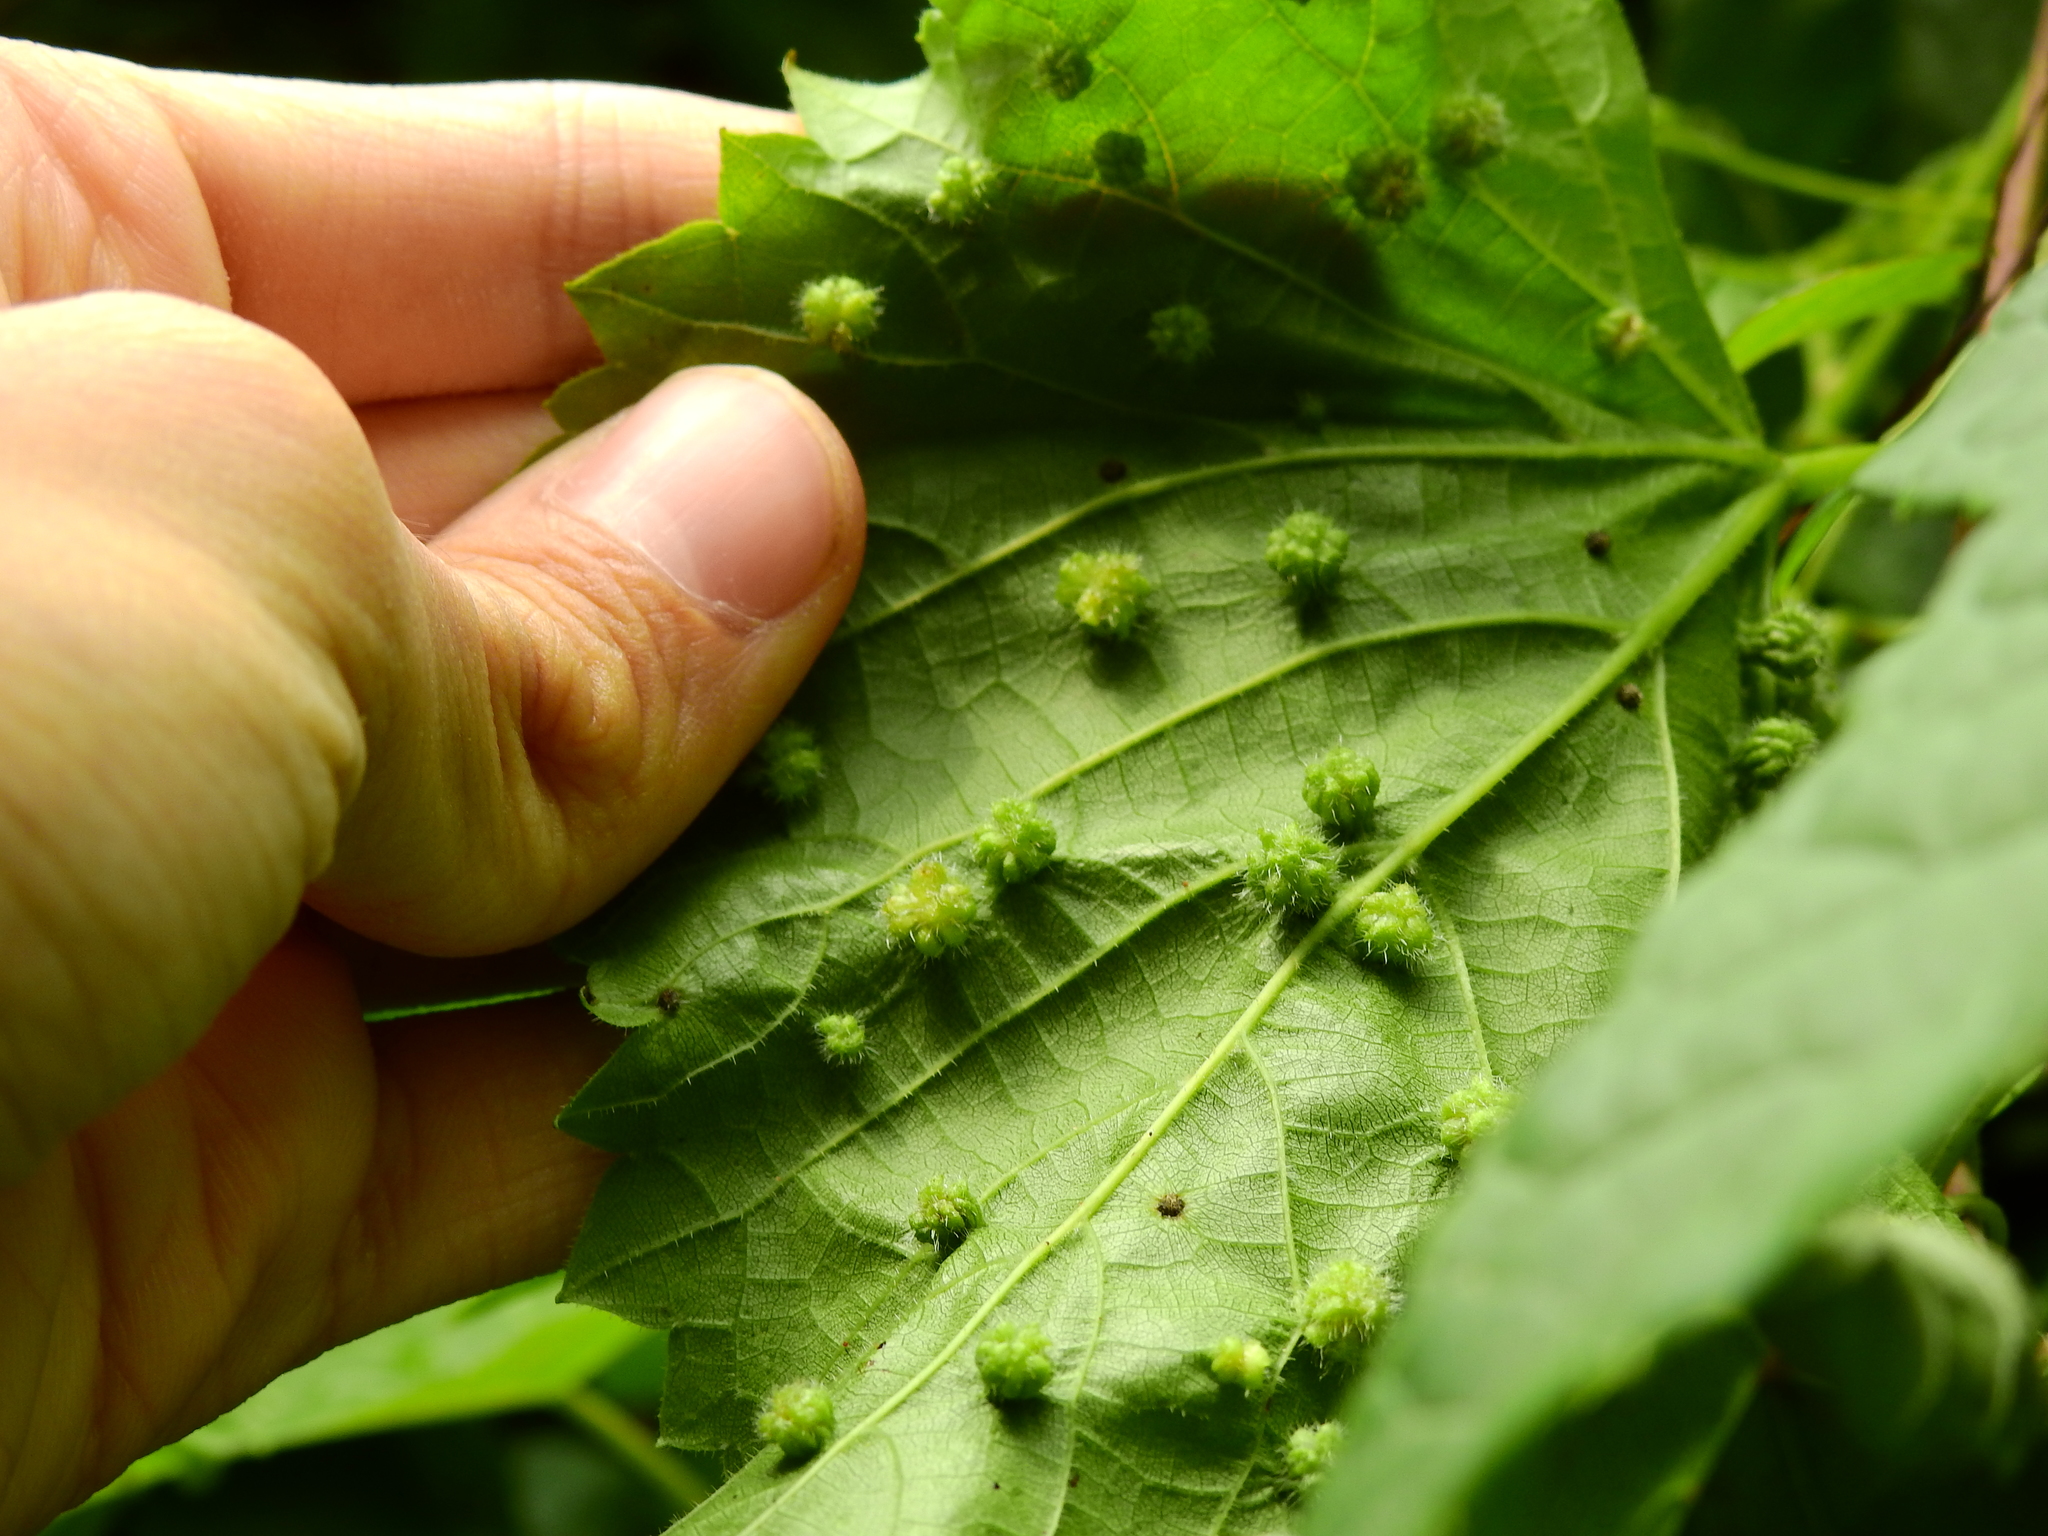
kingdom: Animalia
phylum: Arthropoda
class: Insecta
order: Hemiptera
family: Phylloxeridae
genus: Daktulosphaira
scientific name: Daktulosphaira vitifoliae
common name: Grape phylloxera
